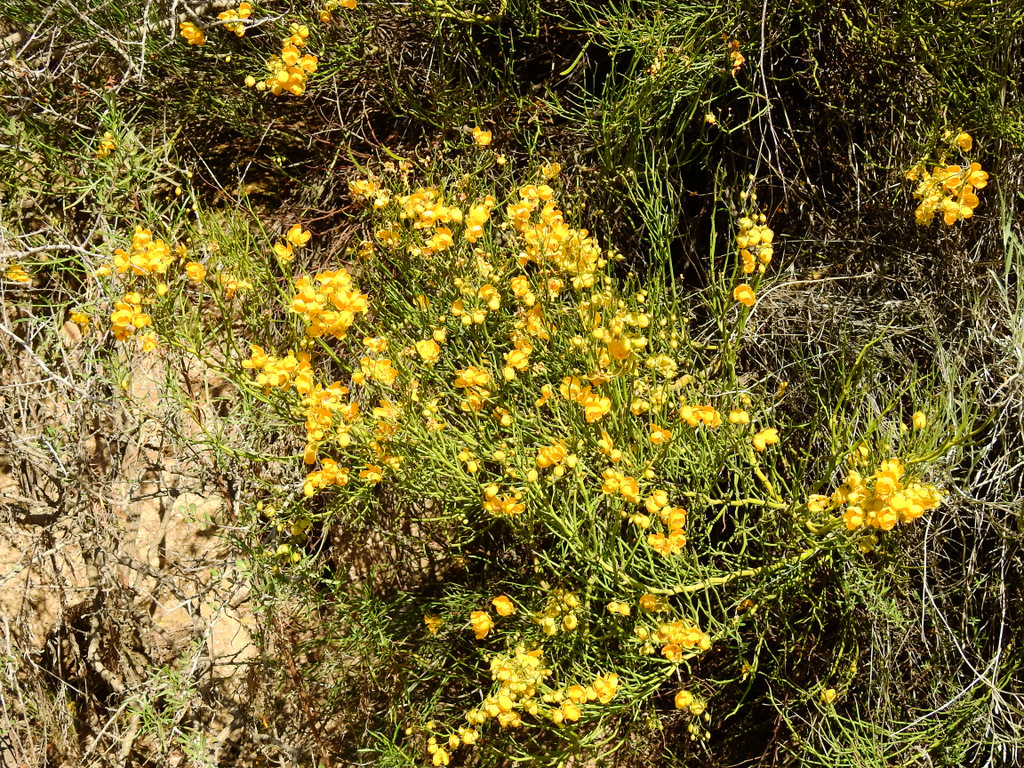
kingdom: Plantae
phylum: Tracheophyta
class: Magnoliopsida
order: Fabales
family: Fabaceae
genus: Senna
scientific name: Senna aphylla
